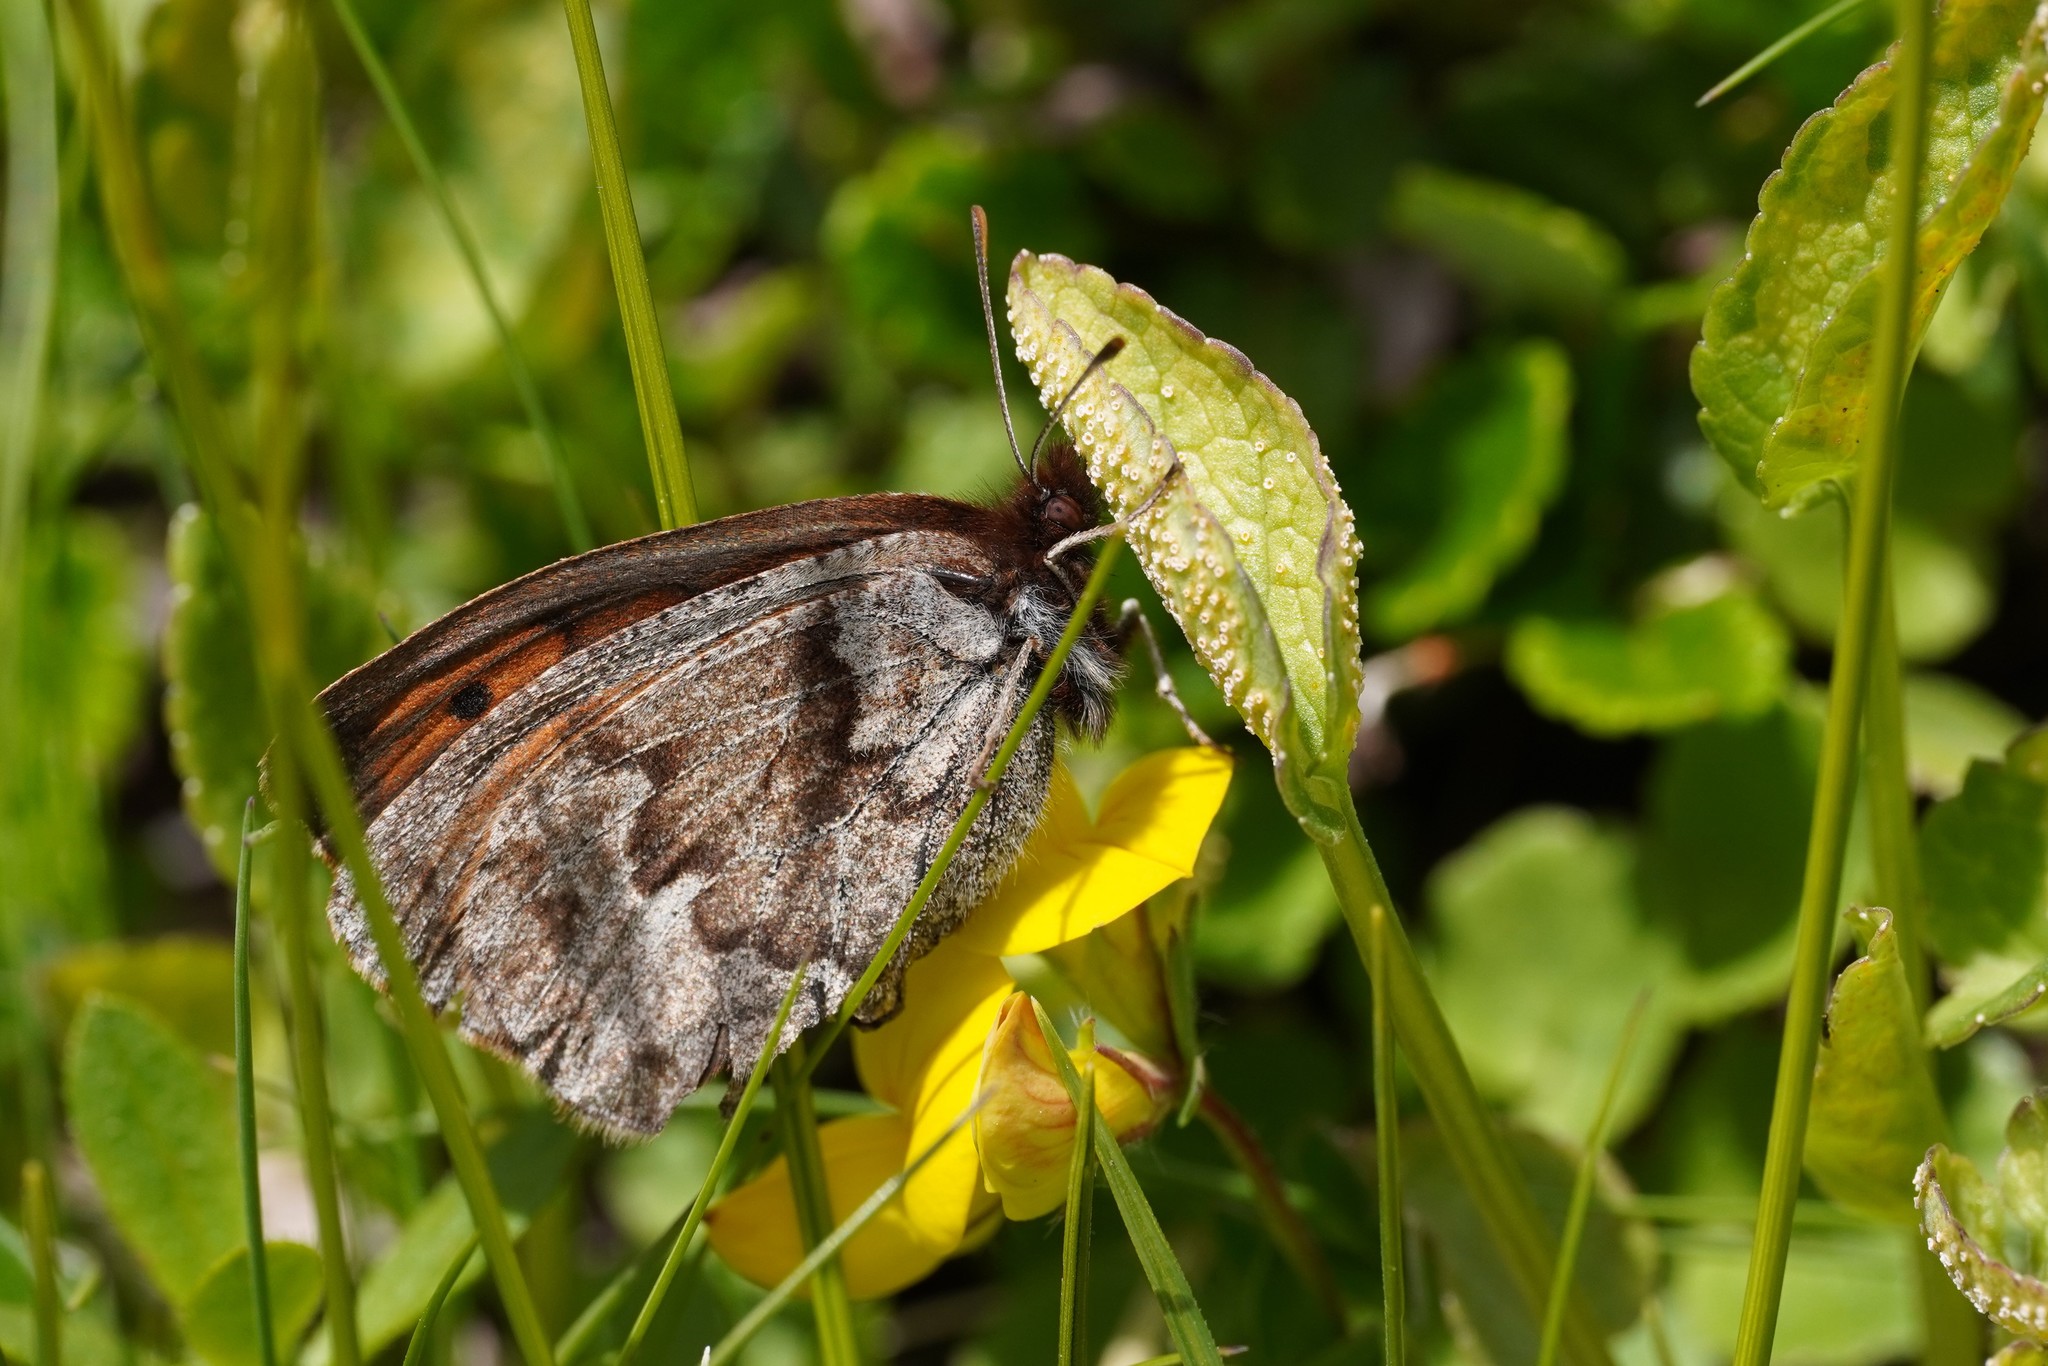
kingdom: Animalia
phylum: Arthropoda
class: Insecta
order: Lepidoptera
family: Nymphalidae
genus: Erebia
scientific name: Erebia pandrose
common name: Dewy ringlet
